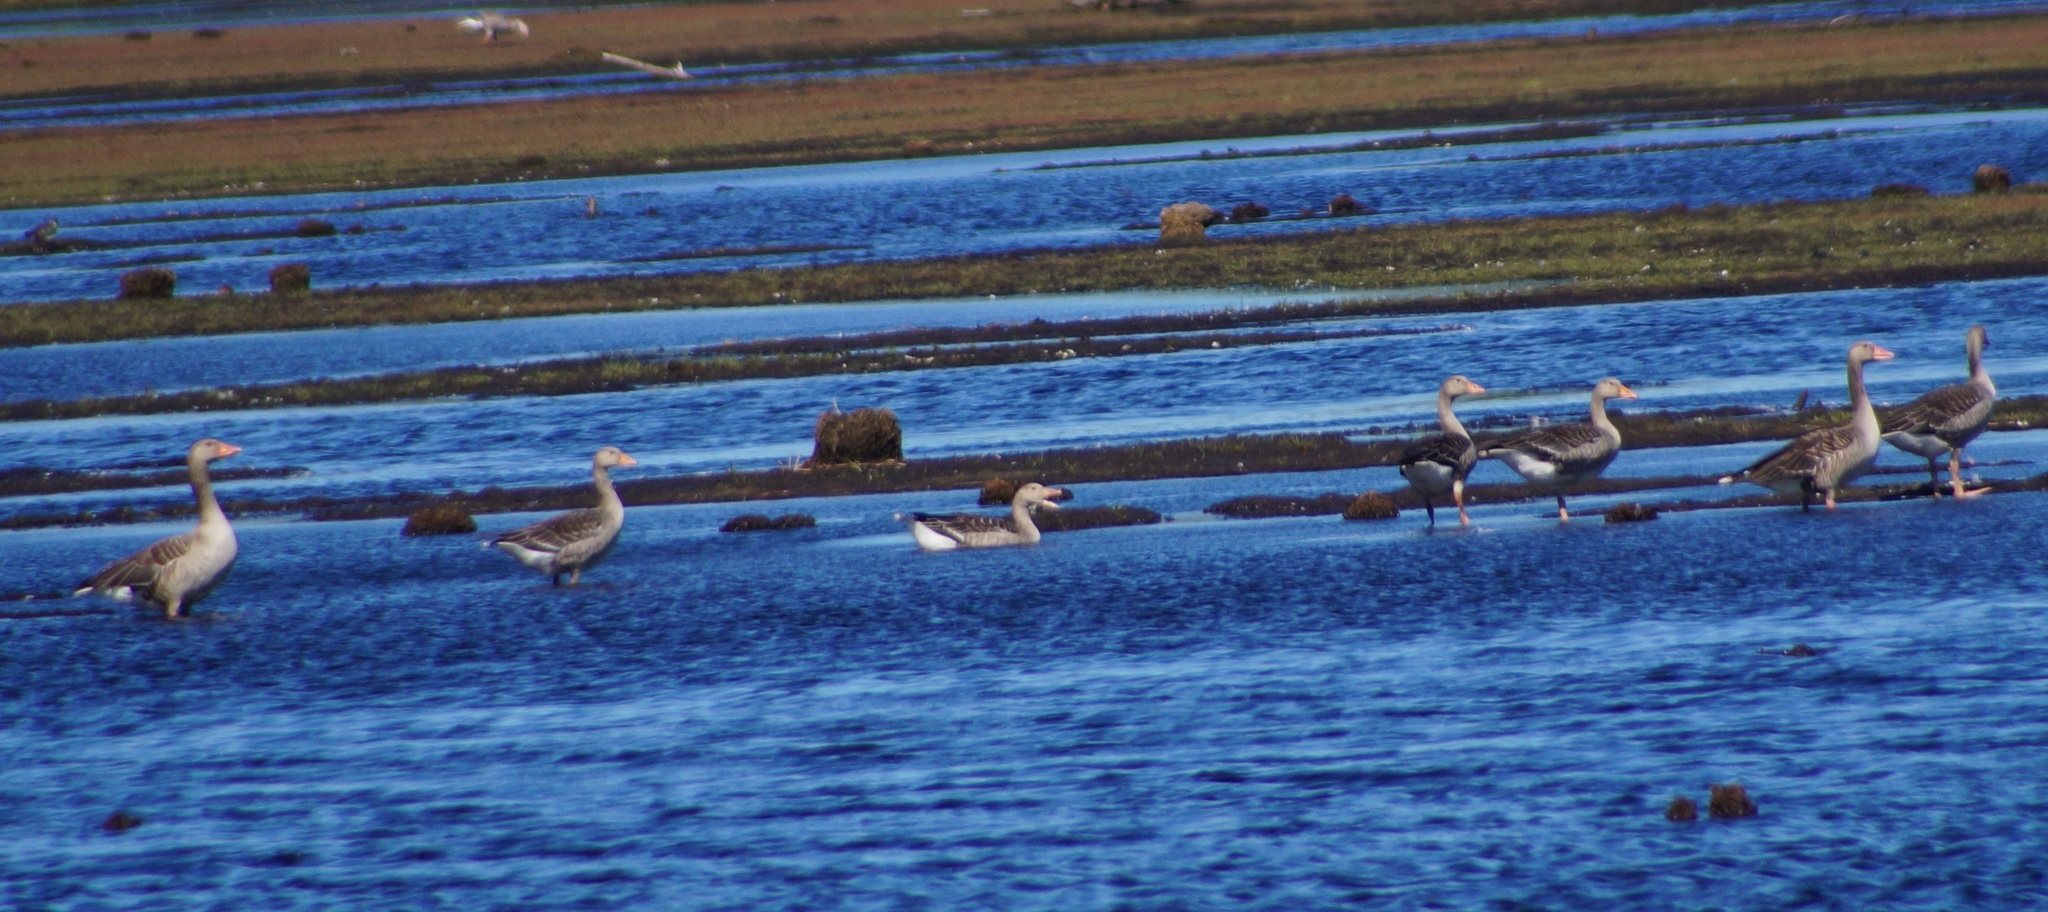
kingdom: Animalia
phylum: Chordata
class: Aves
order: Anseriformes
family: Anatidae
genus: Anser
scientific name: Anser anser
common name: Greylag goose
